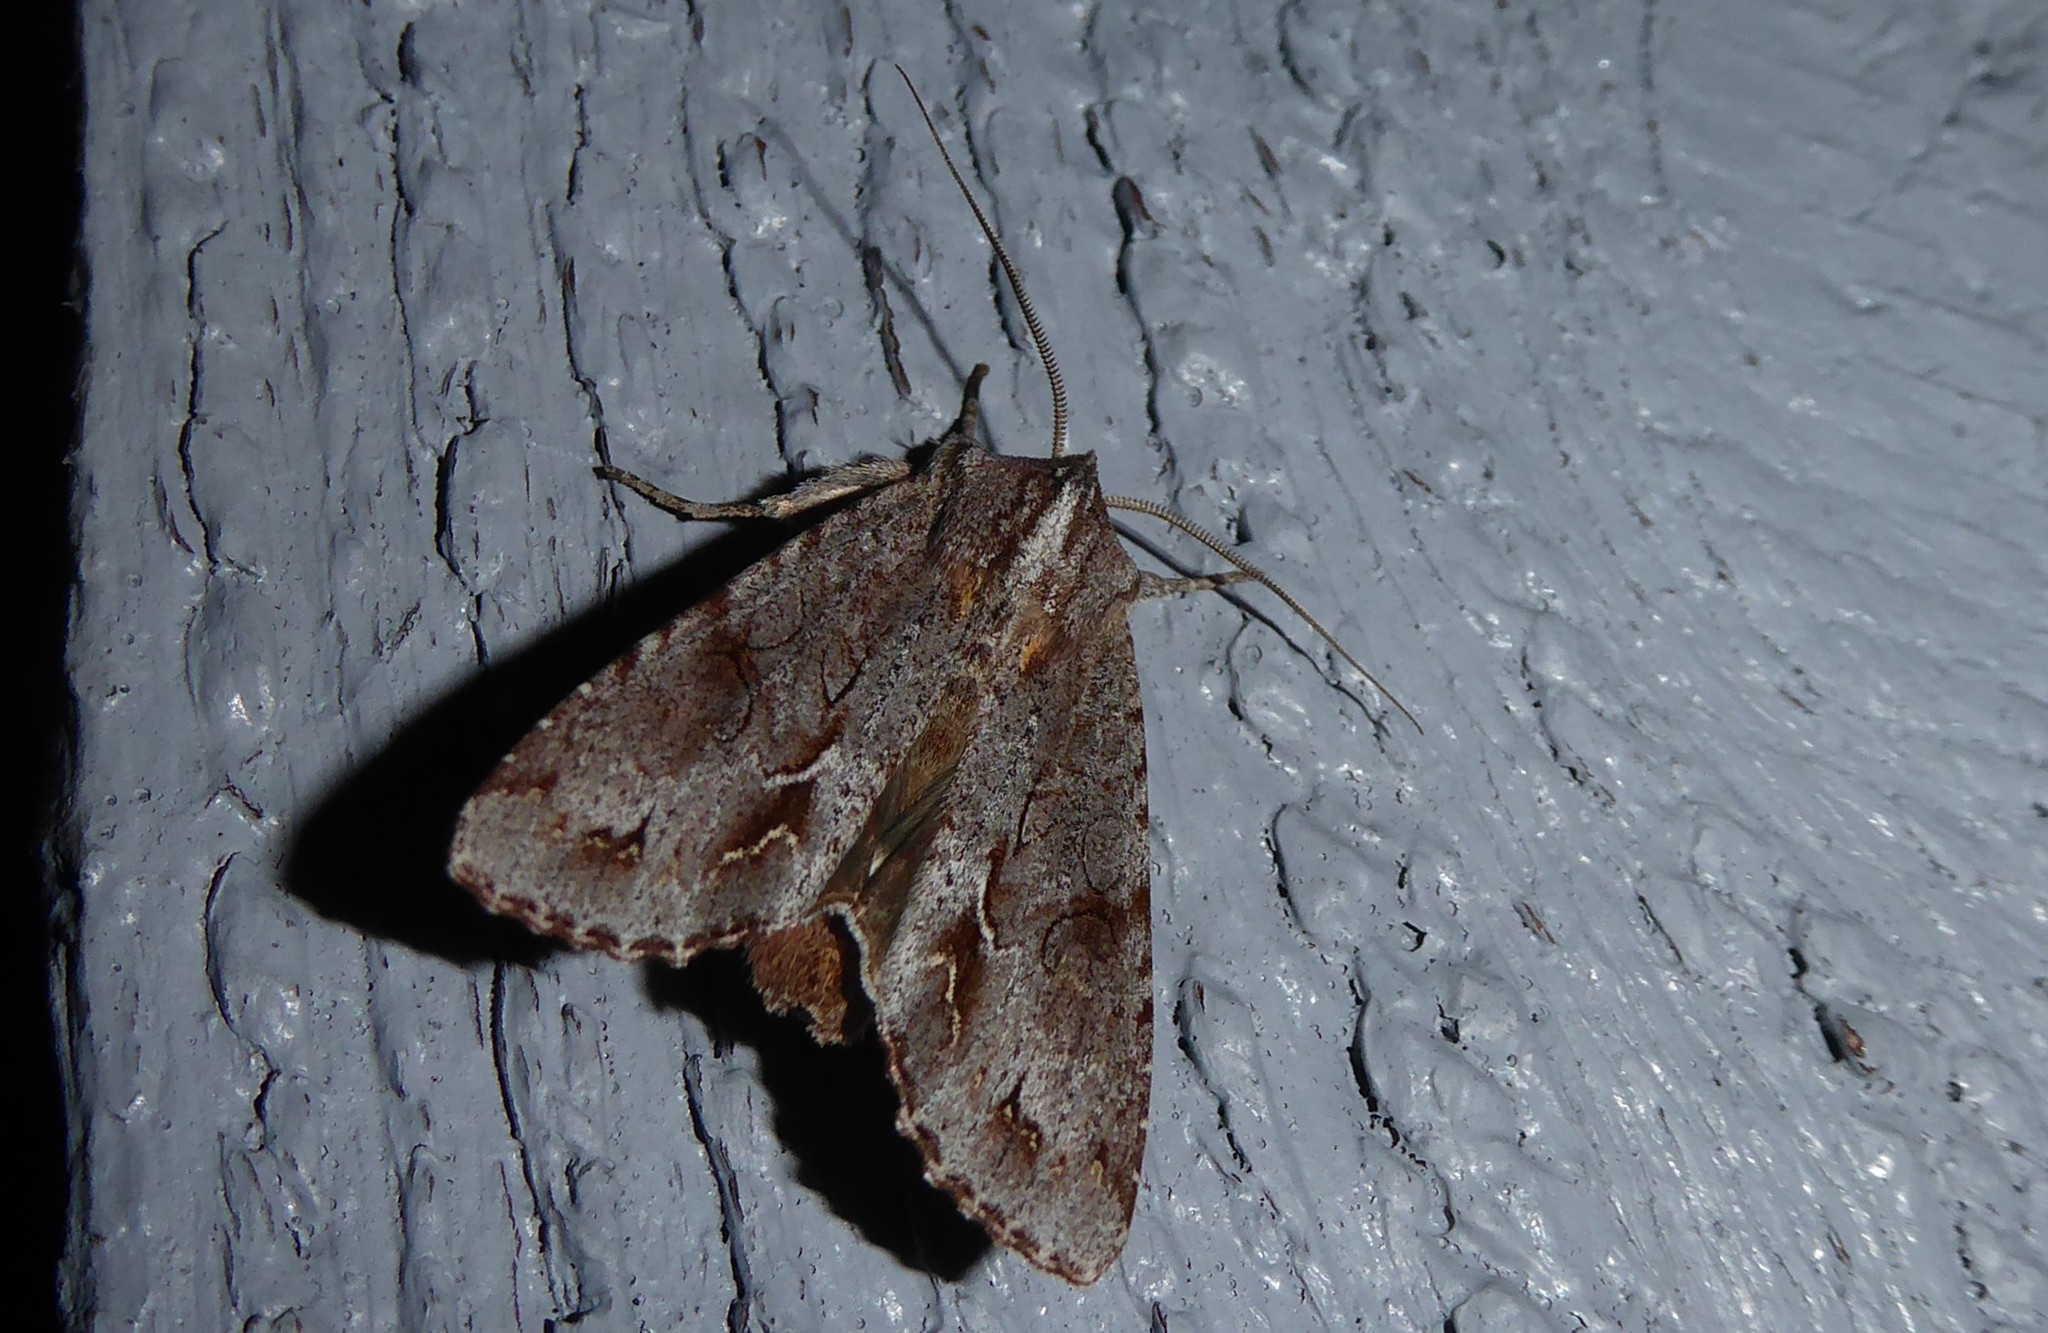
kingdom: Animalia
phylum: Arthropoda
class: Insecta
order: Lepidoptera
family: Noctuidae
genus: Ichneutica
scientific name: Ichneutica
